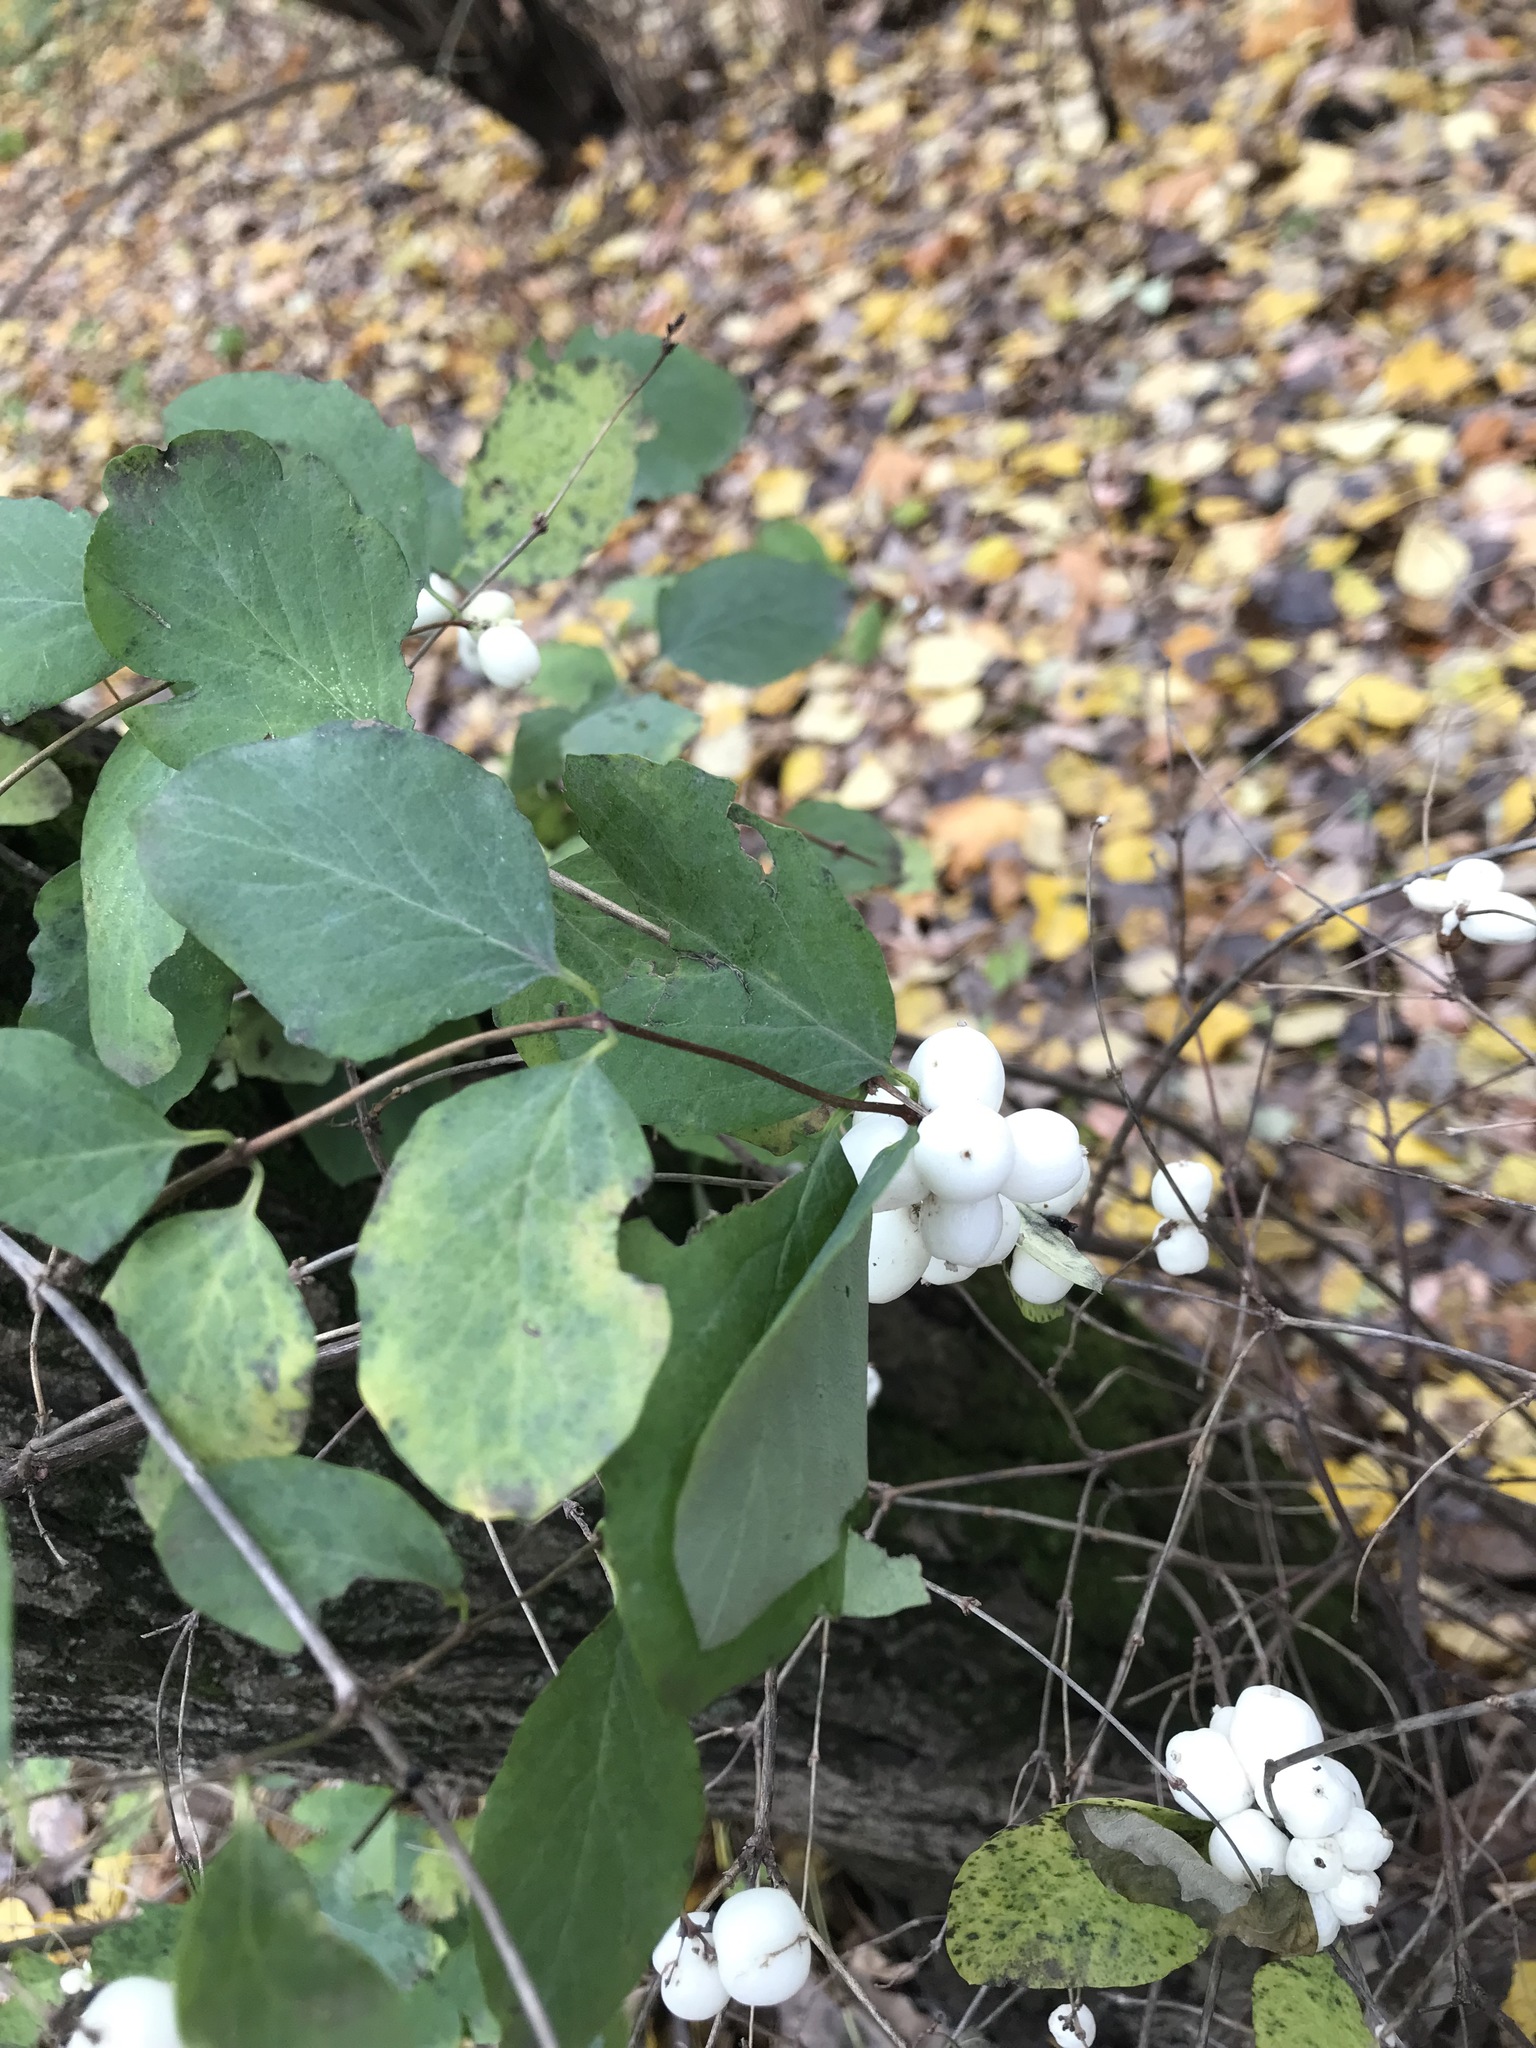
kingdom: Plantae
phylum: Tracheophyta
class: Magnoliopsida
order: Dipsacales
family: Caprifoliaceae
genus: Symphoricarpos
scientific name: Symphoricarpos albus
